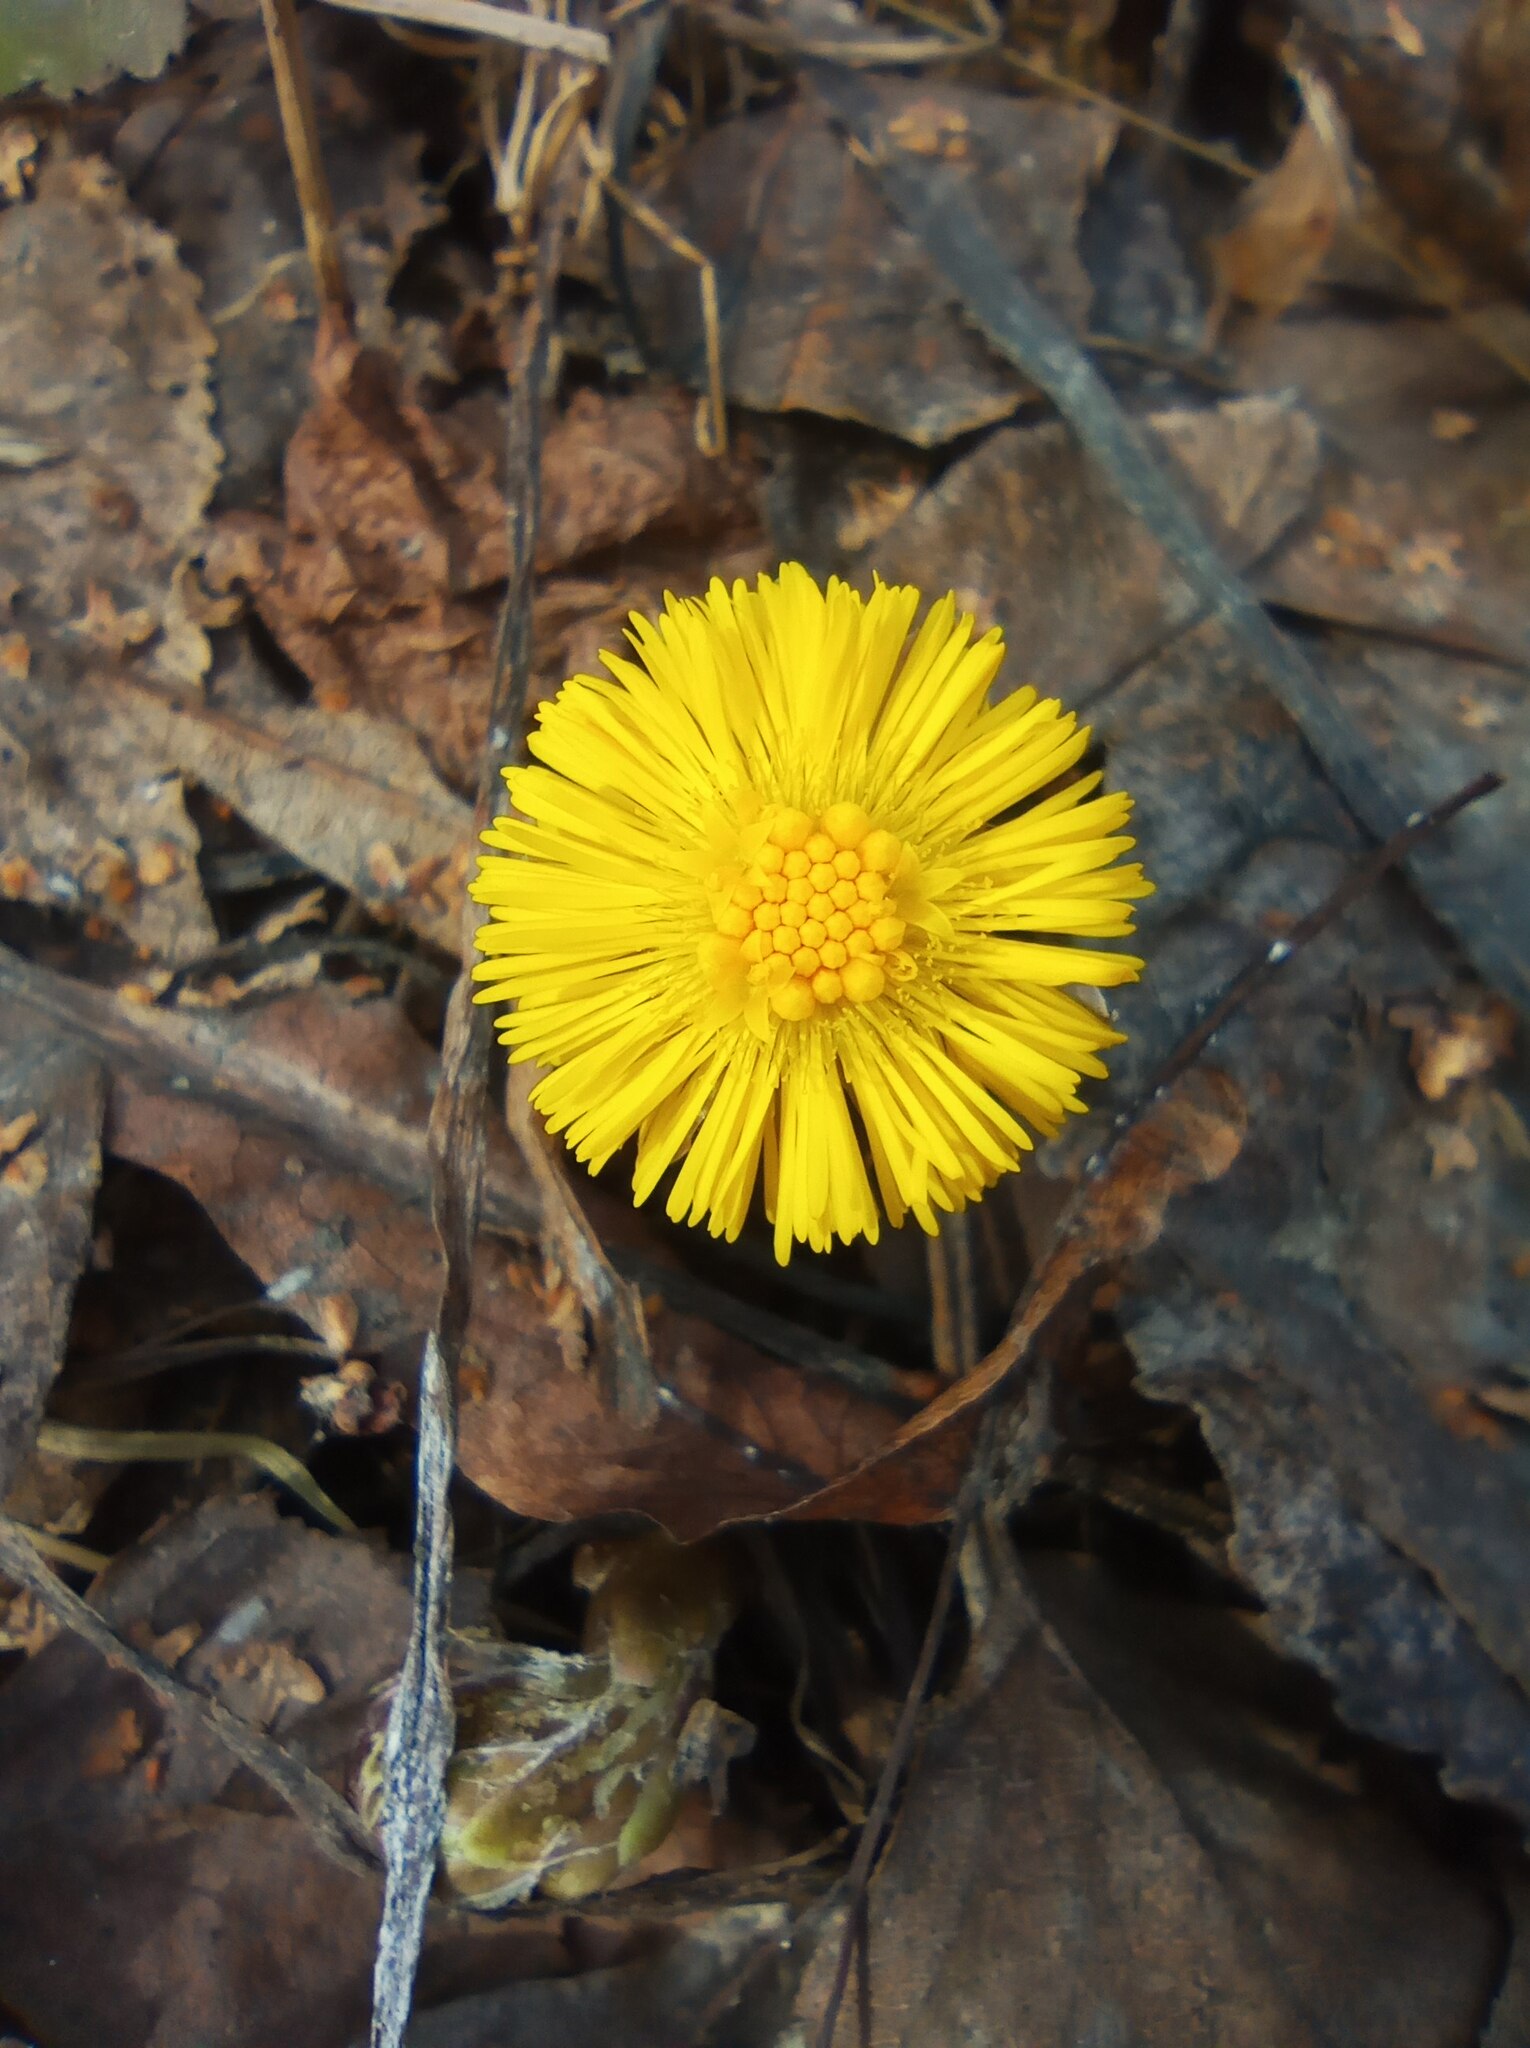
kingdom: Plantae
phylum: Tracheophyta
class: Magnoliopsida
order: Asterales
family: Asteraceae
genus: Tussilago
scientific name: Tussilago farfara
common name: Coltsfoot
